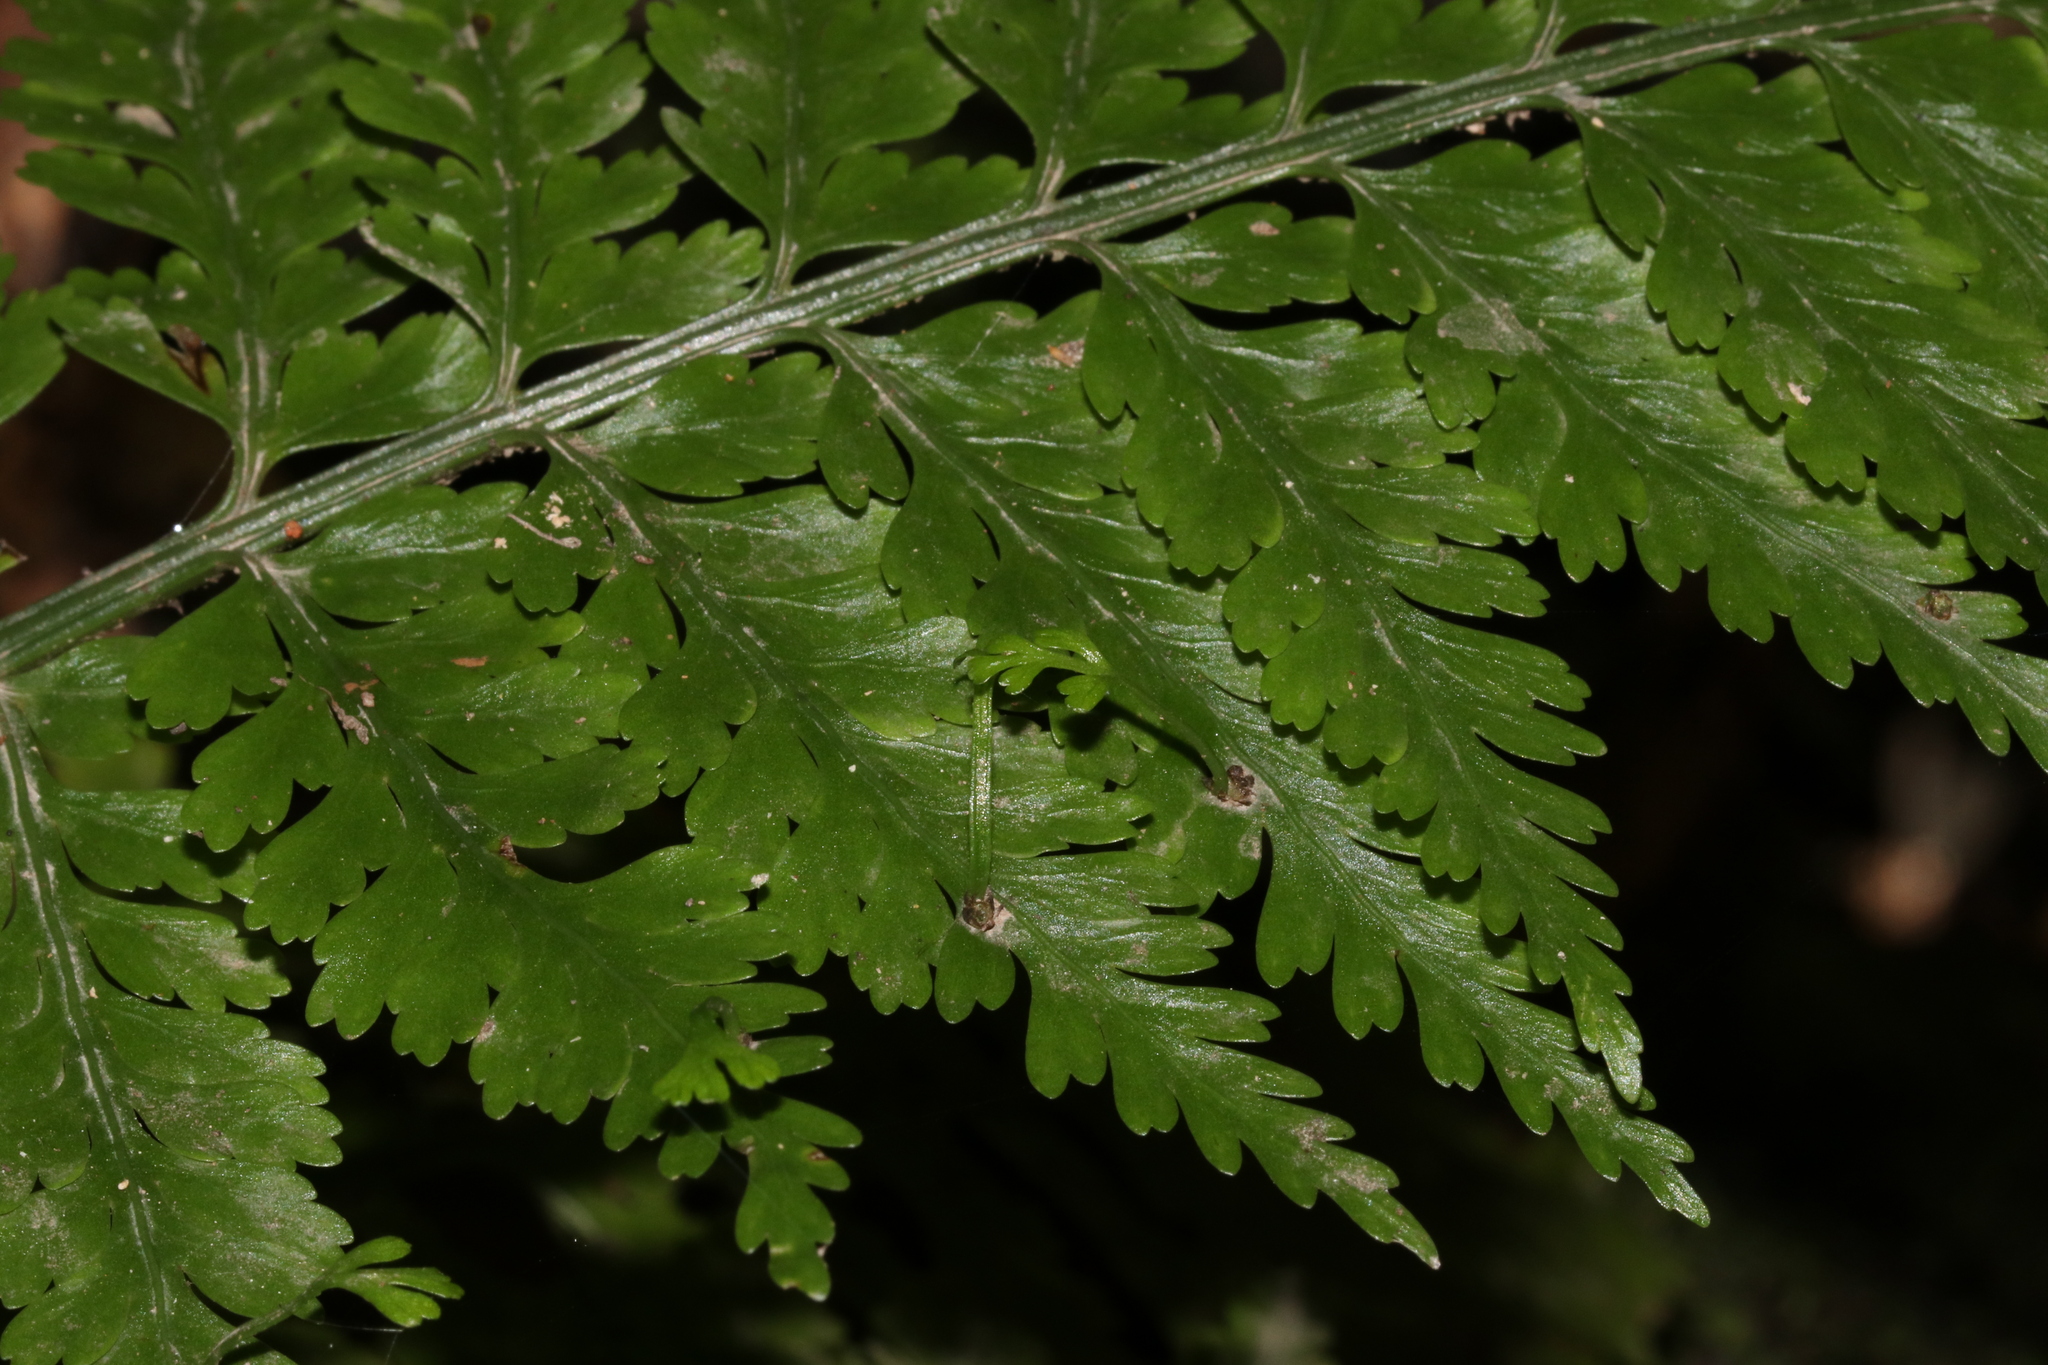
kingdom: Plantae
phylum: Tracheophyta
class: Polypodiopsida
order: Polypodiales
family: Aspleniaceae
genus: Asplenium
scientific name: Asplenium bulbiferum
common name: Mother fern
